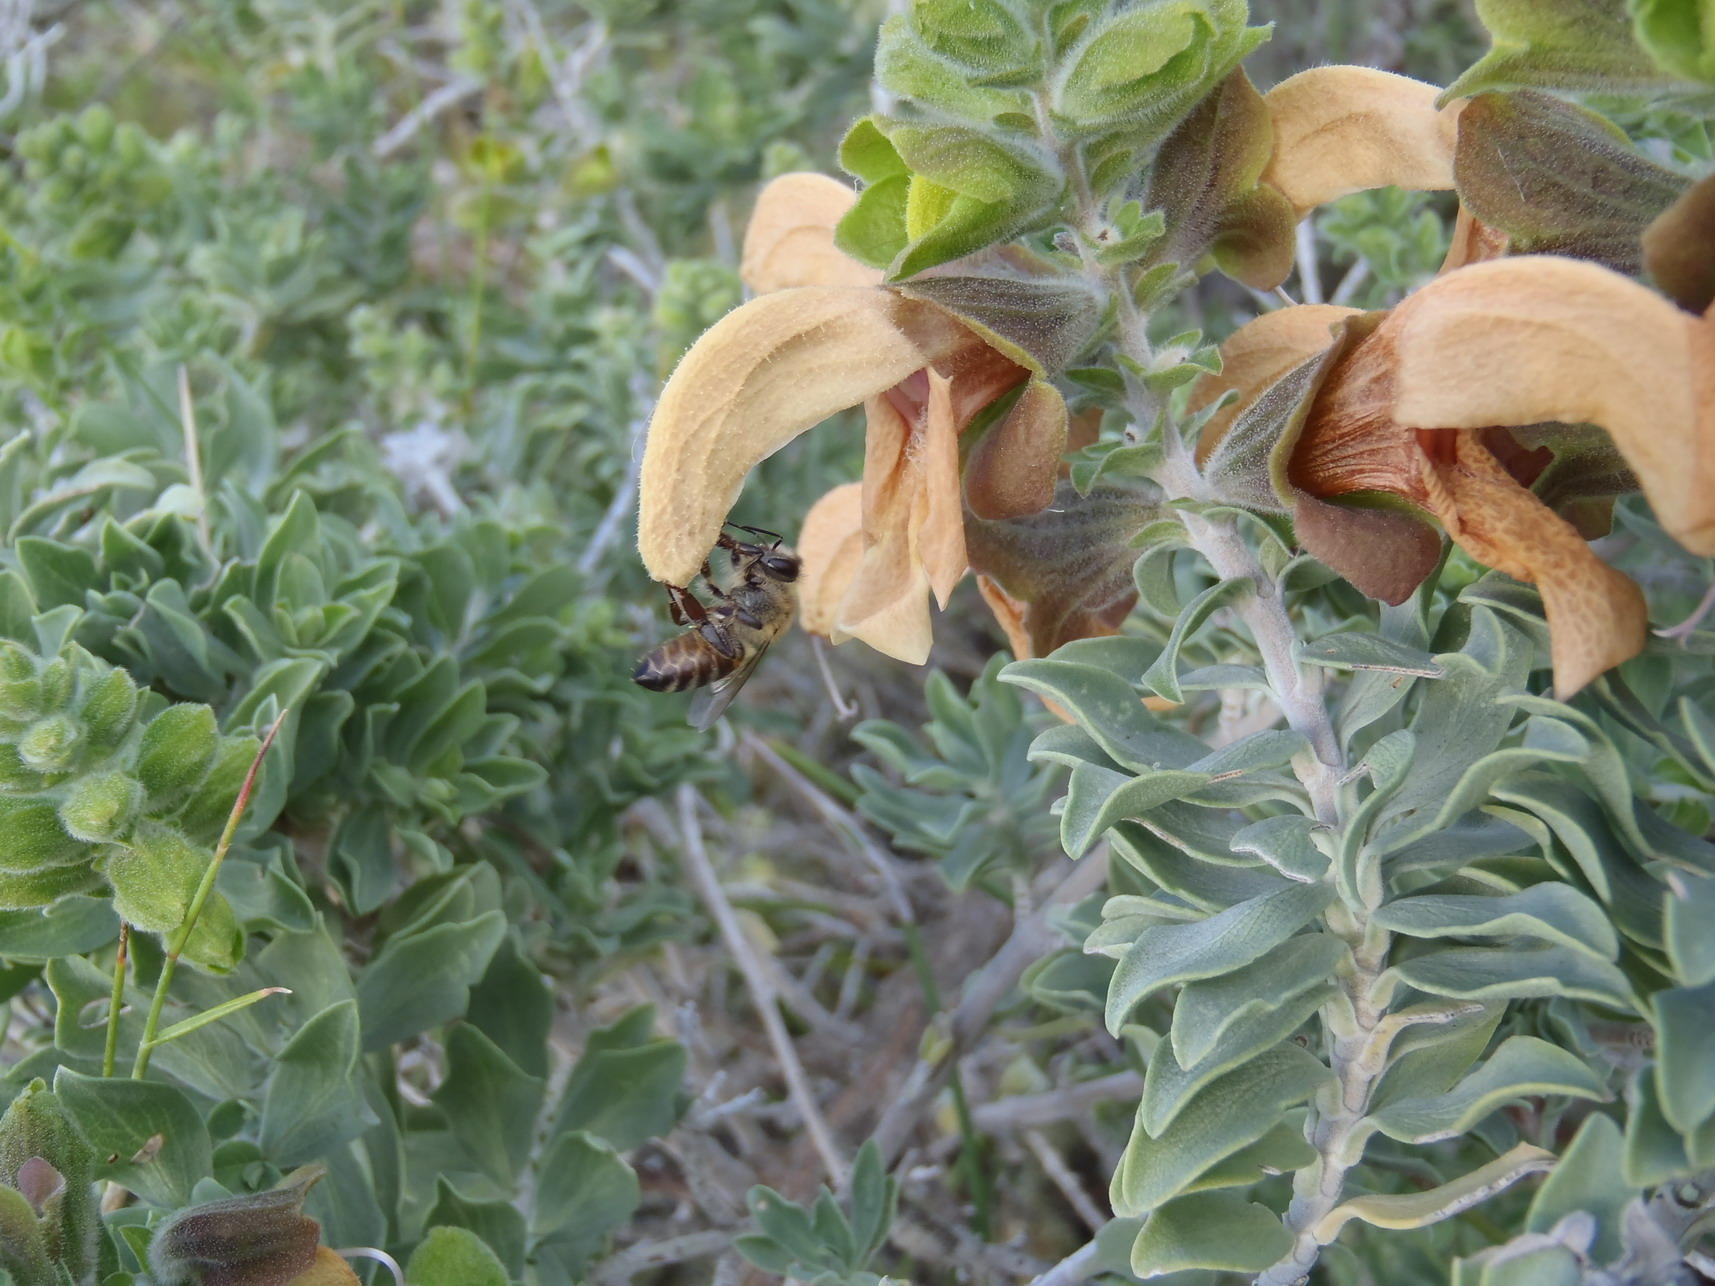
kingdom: Plantae
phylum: Tracheophyta
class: Magnoliopsida
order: Lamiales
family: Lamiaceae
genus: Salvia
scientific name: Salvia aurea
